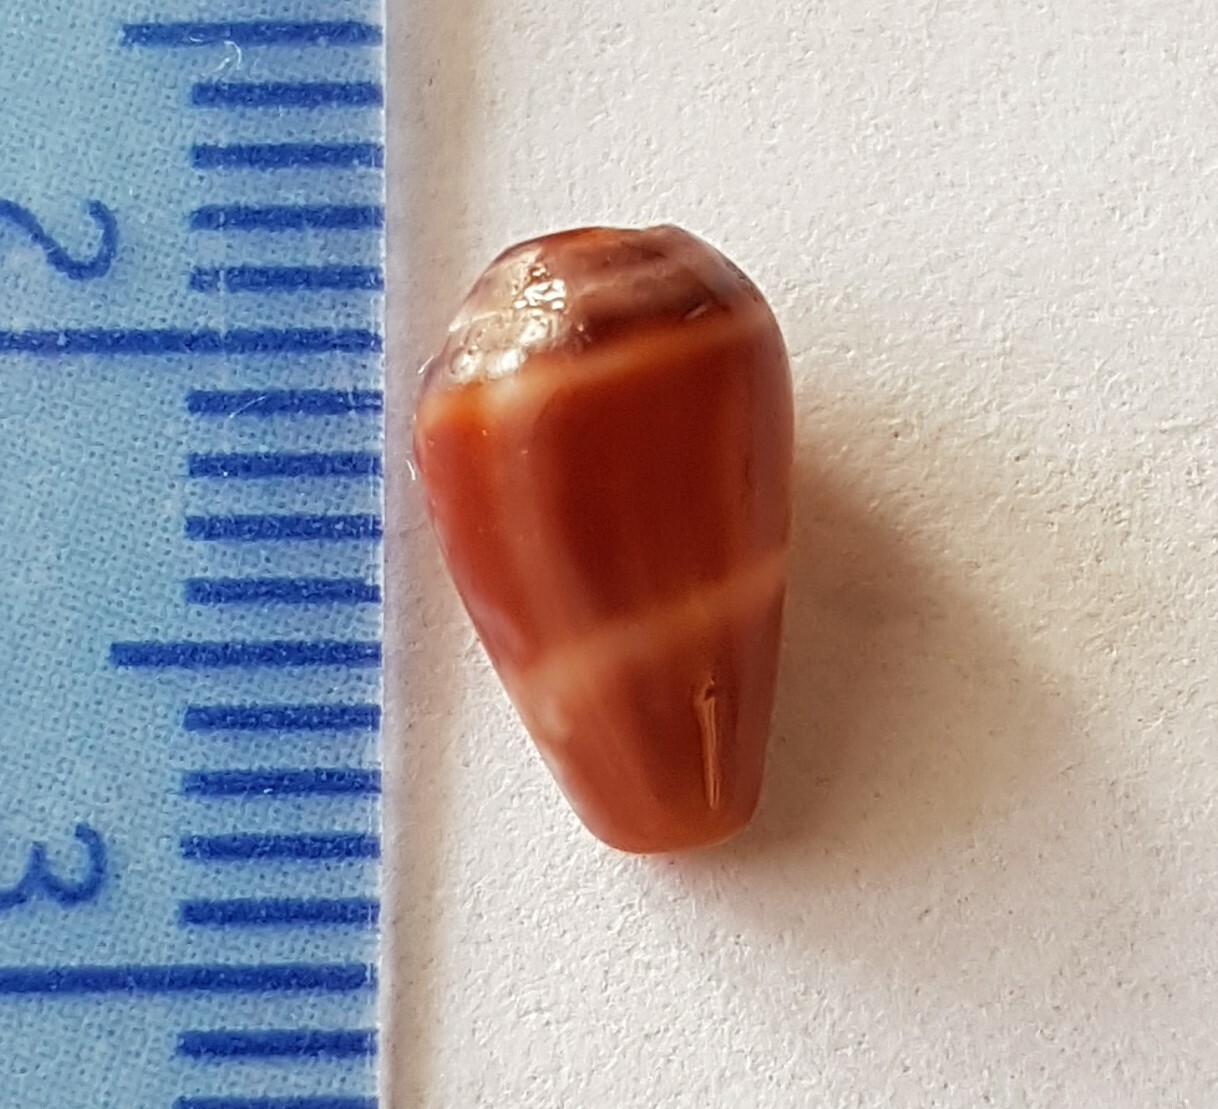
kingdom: Animalia
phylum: Mollusca
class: Gastropoda
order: Neogastropoda
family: Conidae
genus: Conus
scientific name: Conus ventricosus
